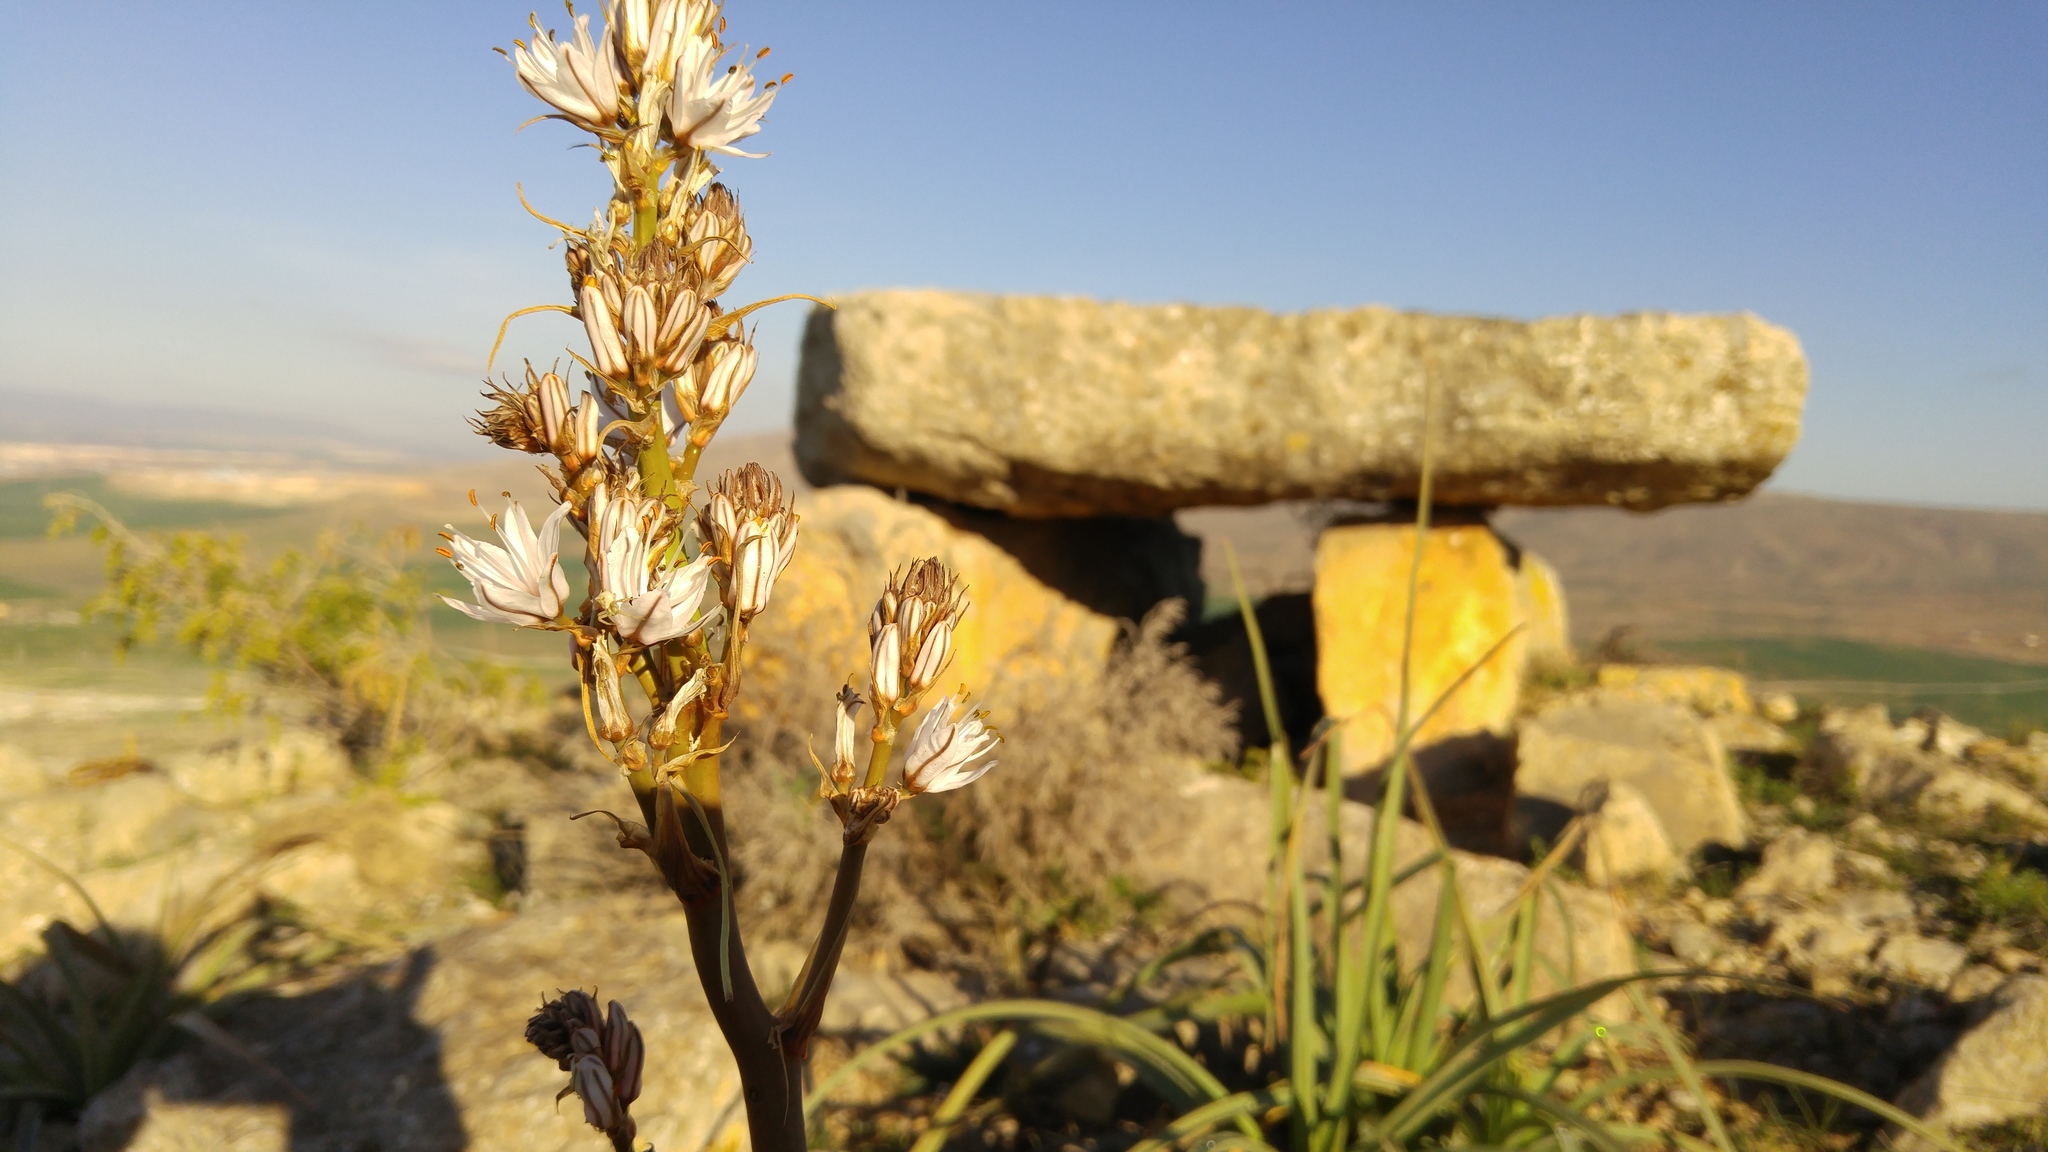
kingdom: Plantae
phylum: Tracheophyta
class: Liliopsida
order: Asparagales
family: Asphodelaceae
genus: Asphodelus
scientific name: Asphodelus ramosus
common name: Silverrod
